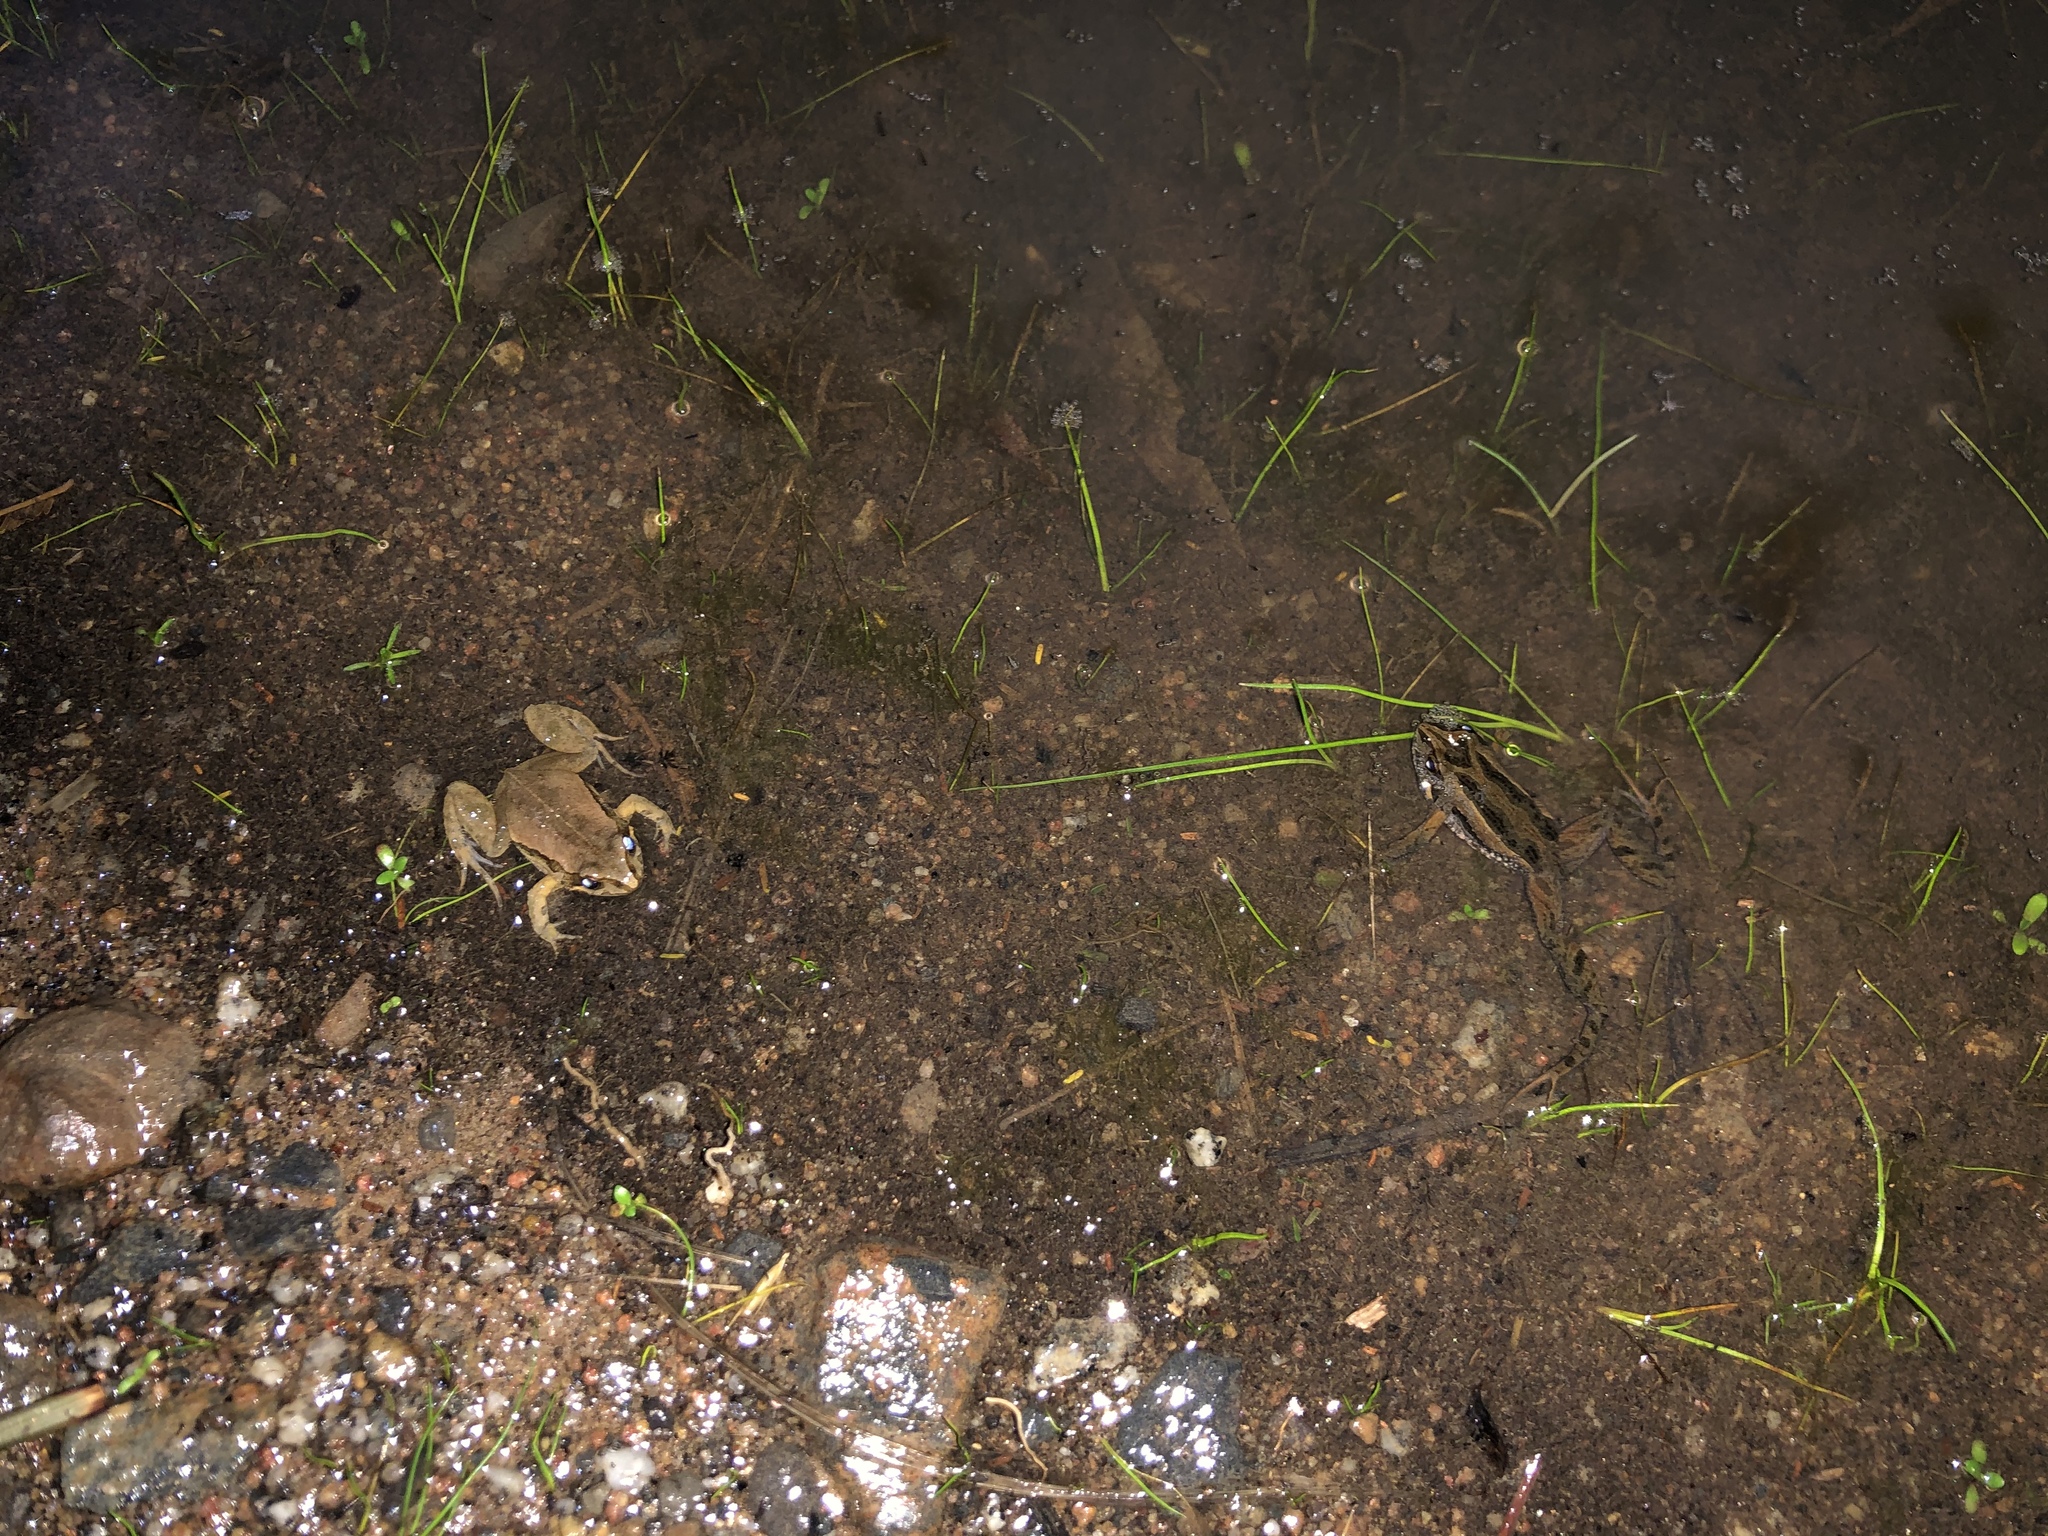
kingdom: Animalia
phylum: Chordata
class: Amphibia
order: Anura
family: Myobatrachidae
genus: Crinia
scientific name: Crinia signifera
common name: Brown froglet
